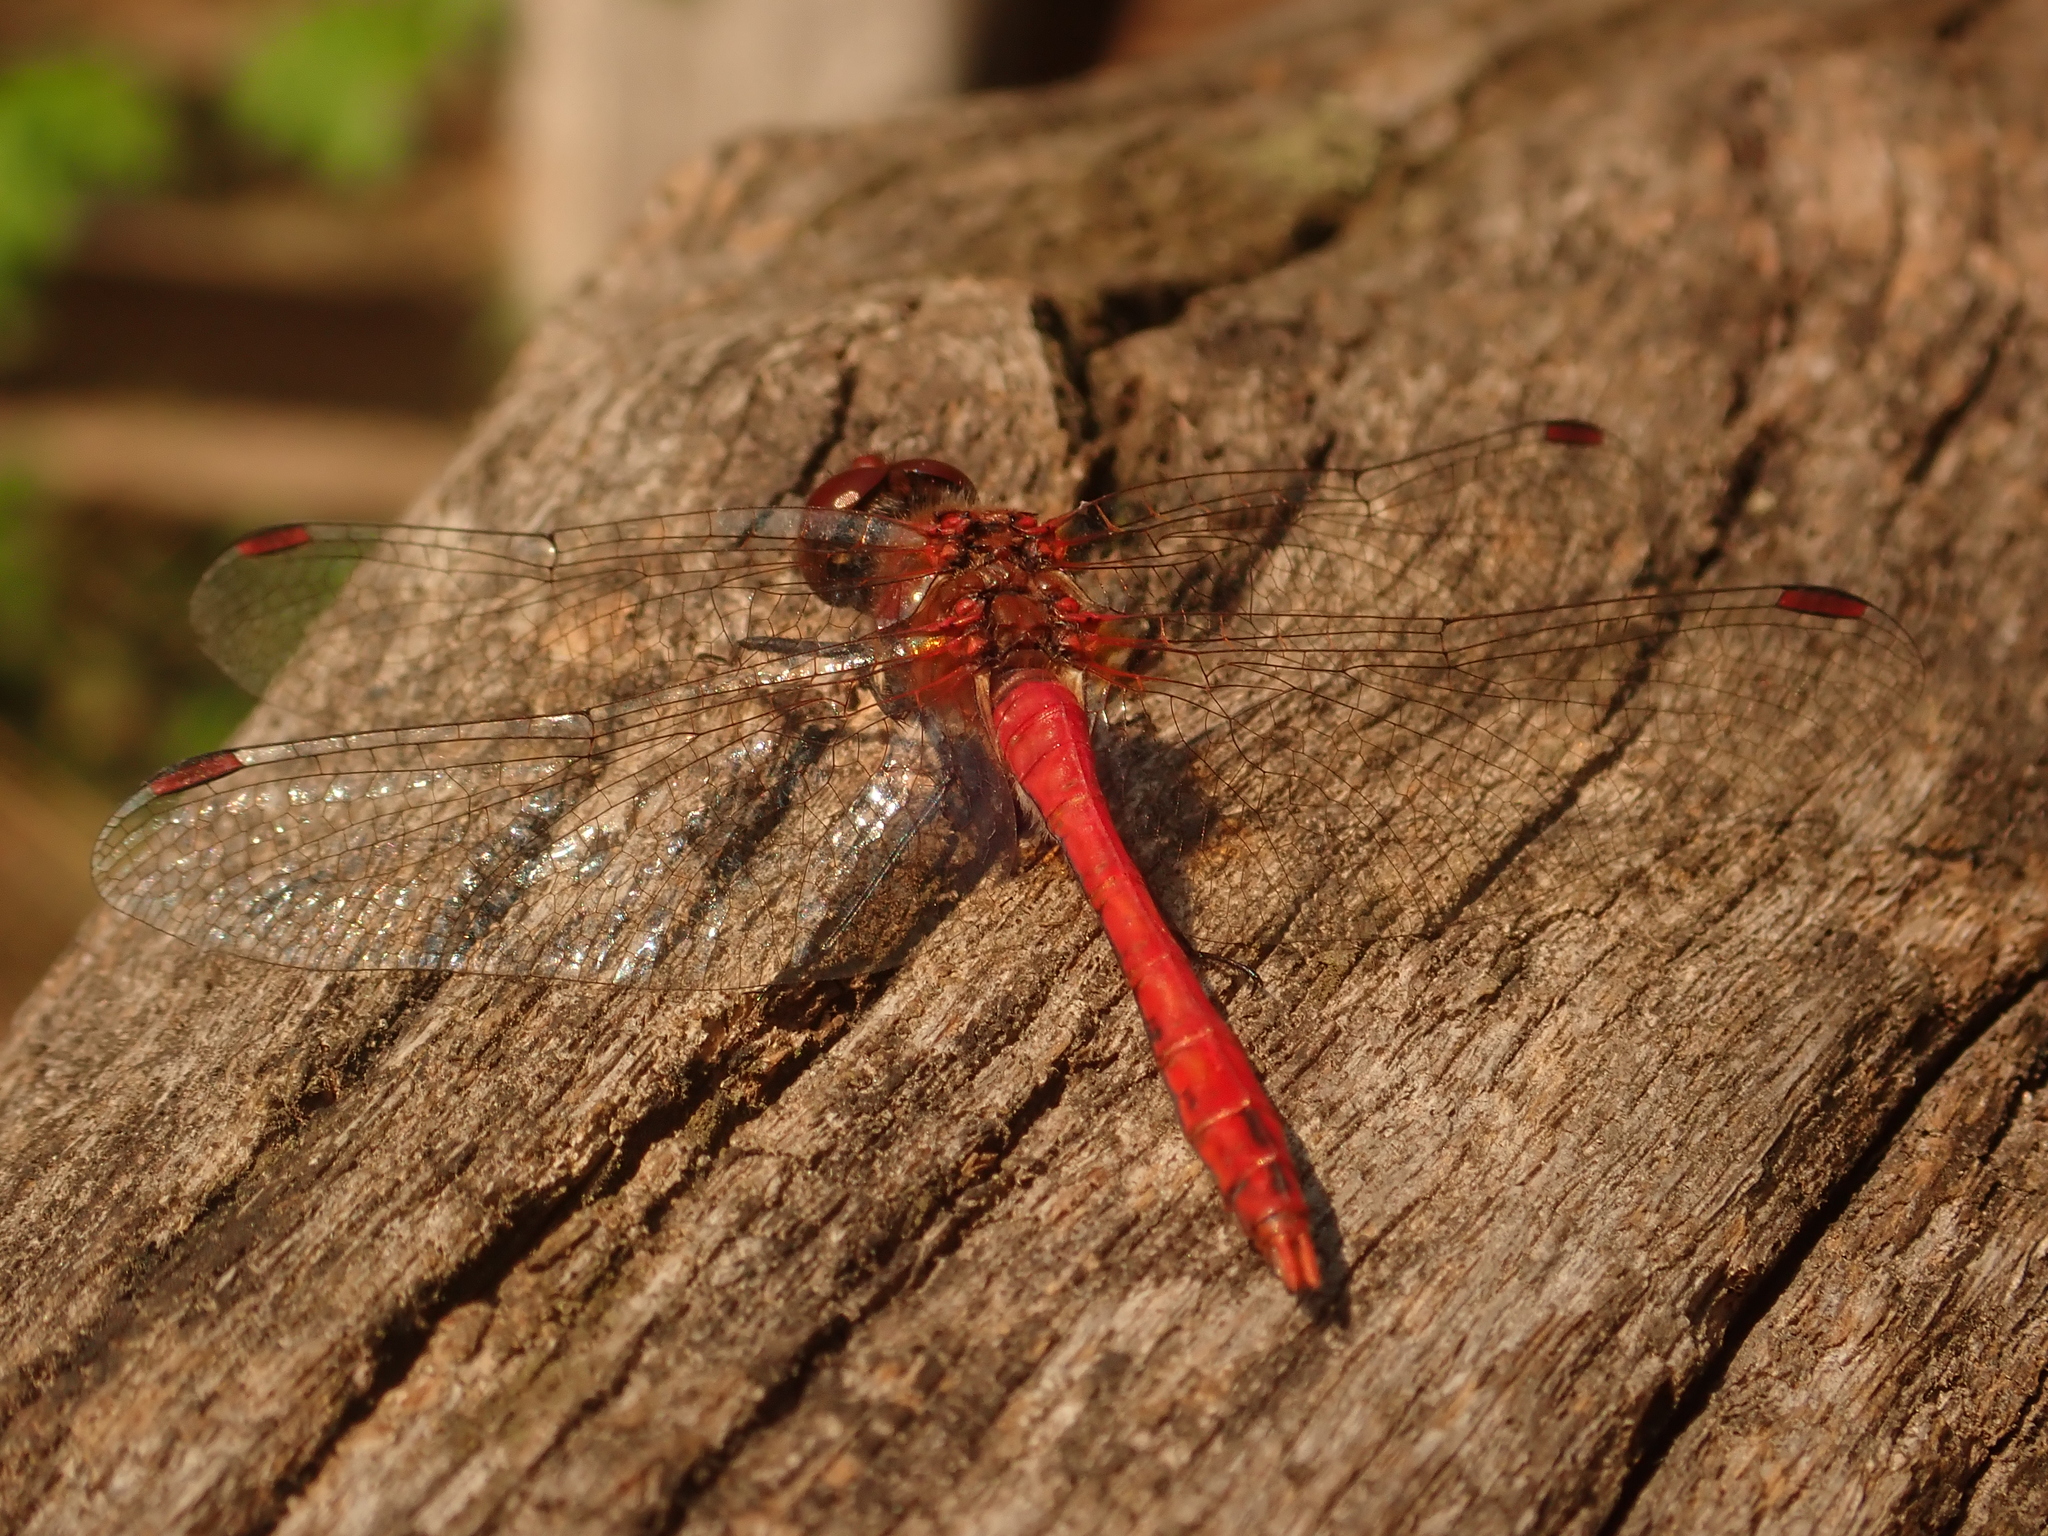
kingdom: Animalia
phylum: Arthropoda
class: Insecta
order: Odonata
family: Libellulidae
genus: Sympetrum
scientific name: Sympetrum sanguineum
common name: Ruddy darter
